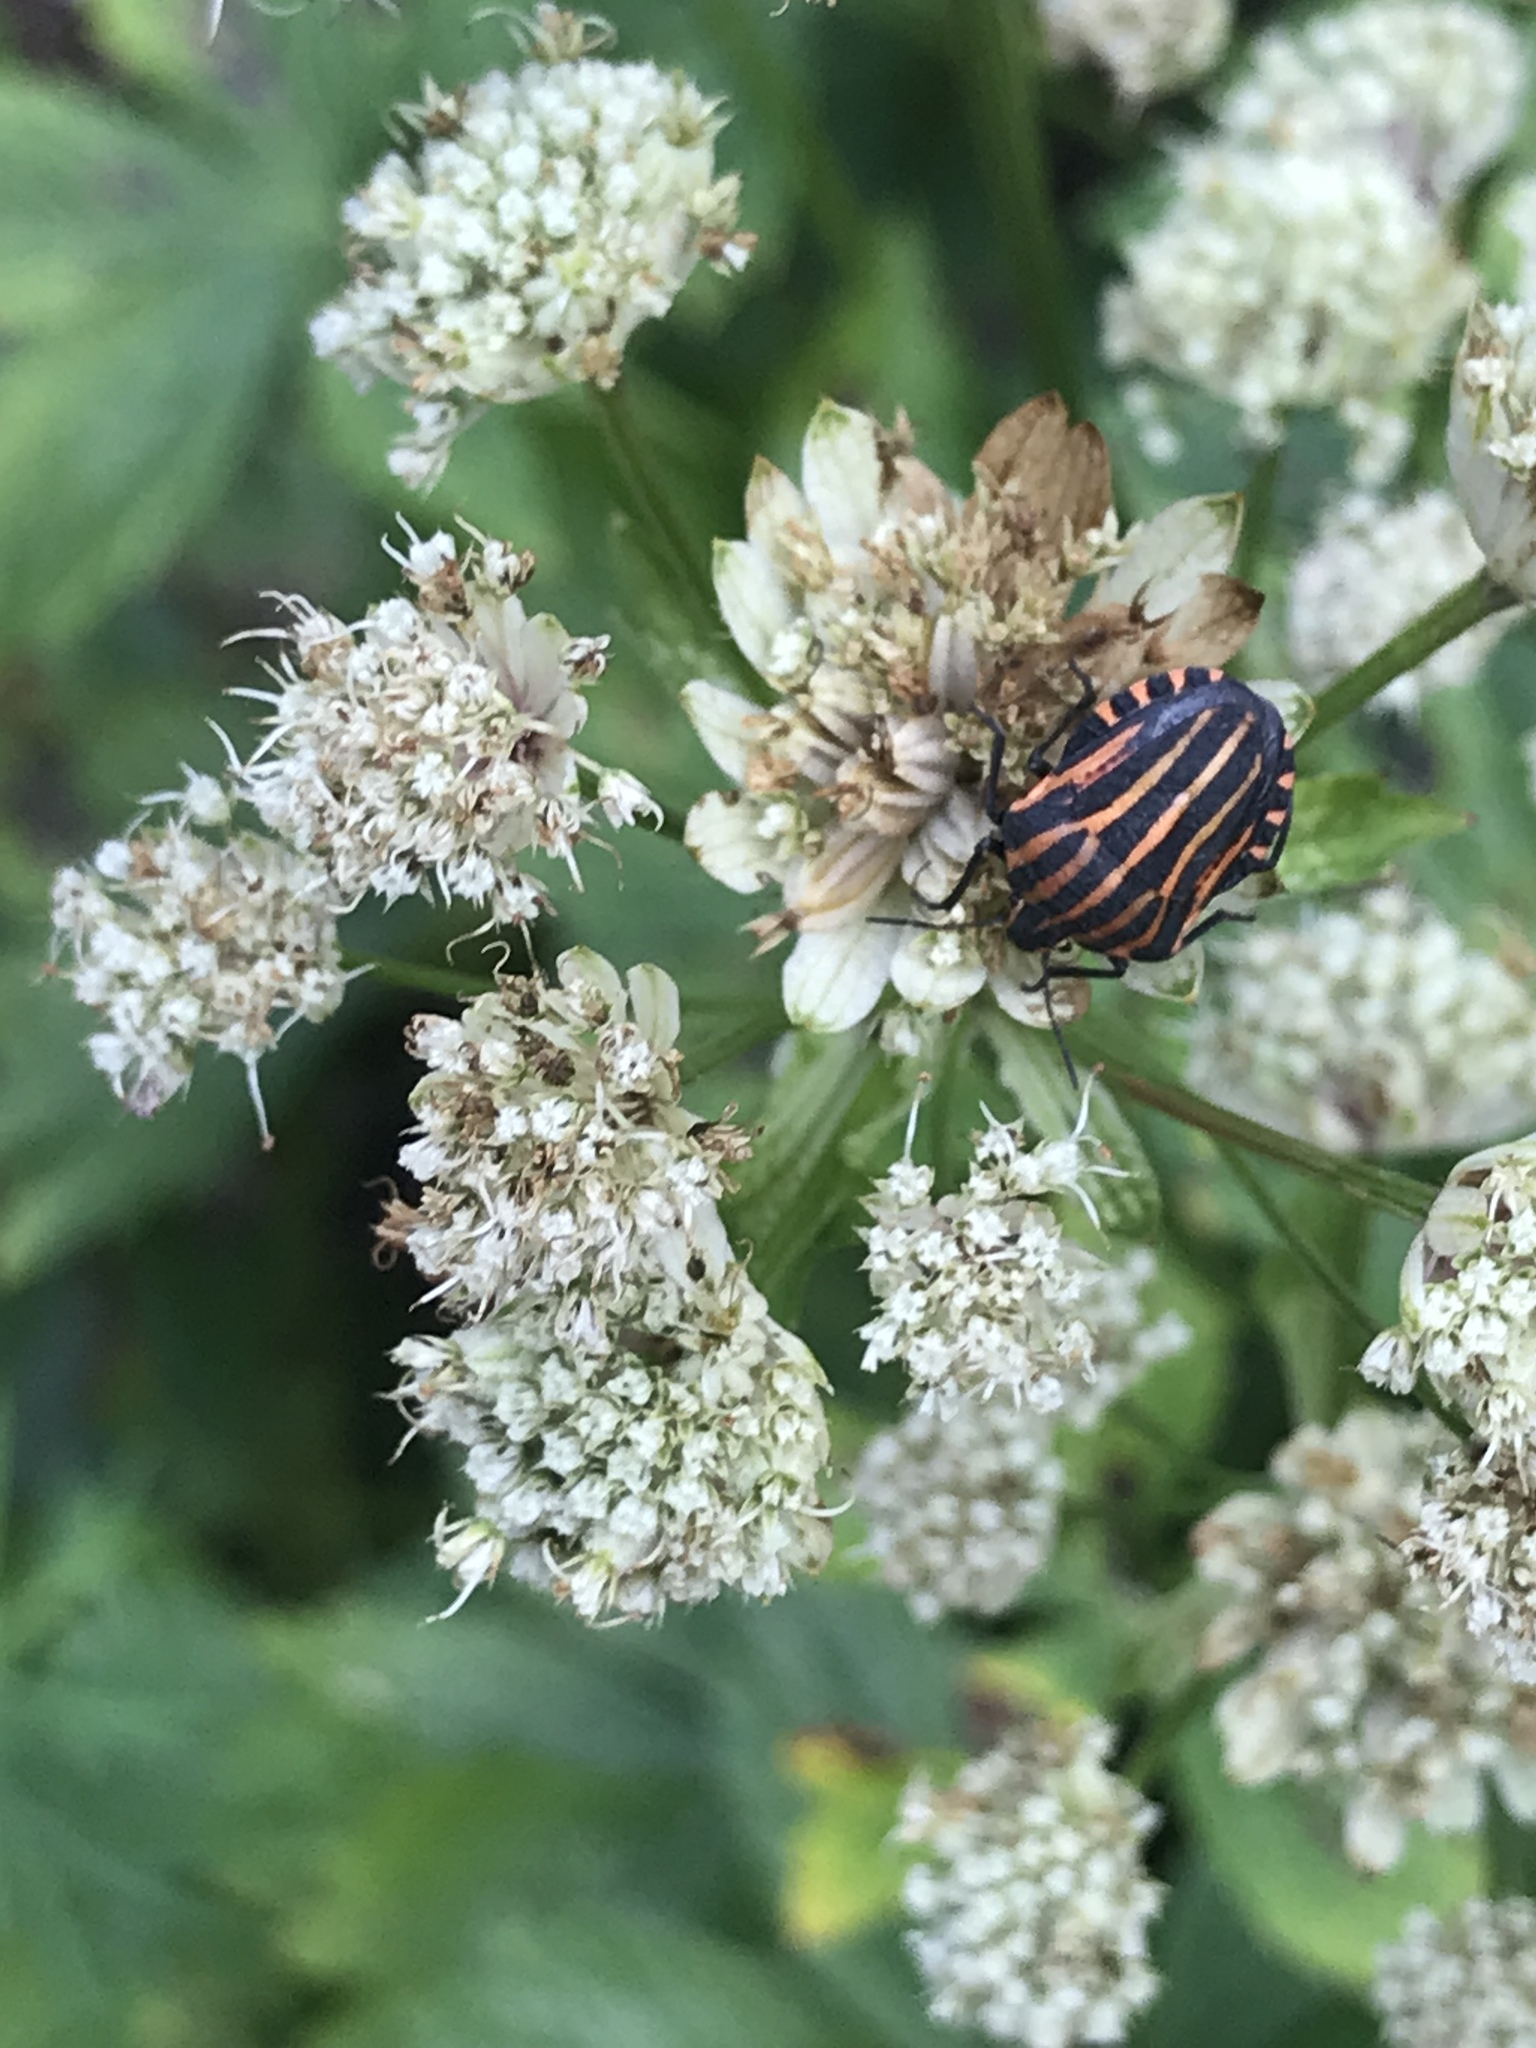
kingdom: Animalia
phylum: Arthropoda
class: Insecta
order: Hemiptera
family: Pentatomidae
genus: Graphosoma
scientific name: Graphosoma italicum
